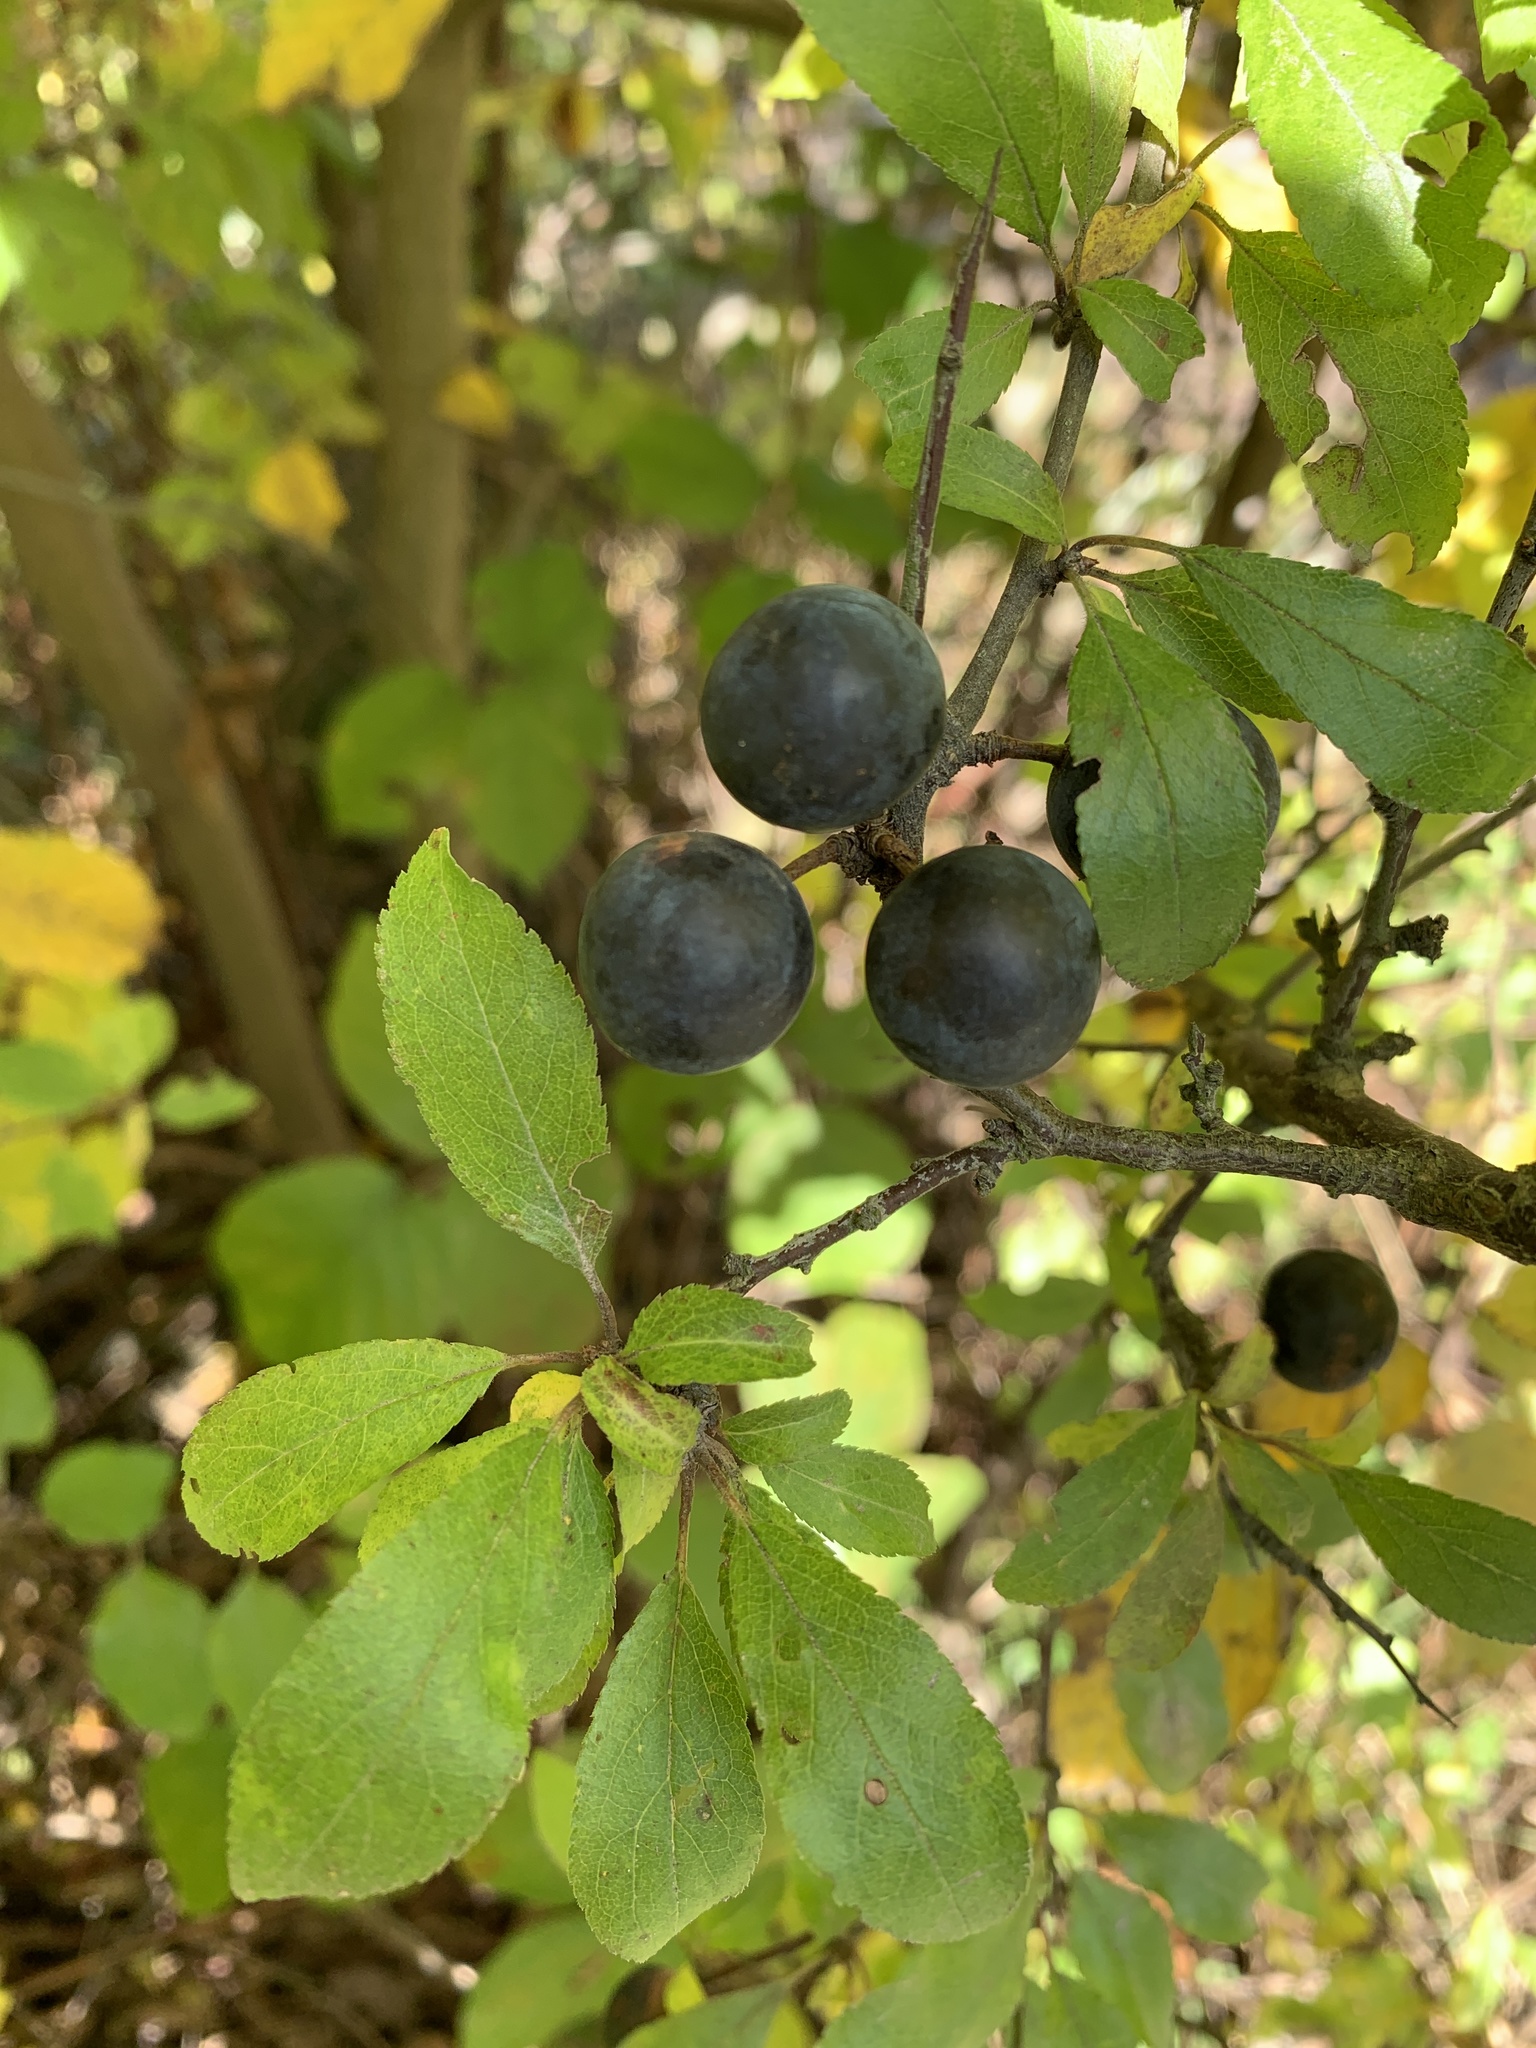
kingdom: Plantae
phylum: Tracheophyta
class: Magnoliopsida
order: Rosales
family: Rosaceae
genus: Prunus
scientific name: Prunus spinosa
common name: Blackthorn
